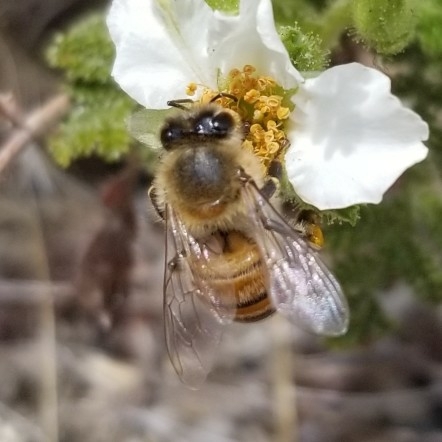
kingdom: Animalia
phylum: Arthropoda
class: Insecta
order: Hymenoptera
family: Apidae
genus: Apis
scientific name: Apis mellifera
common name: Honey bee
